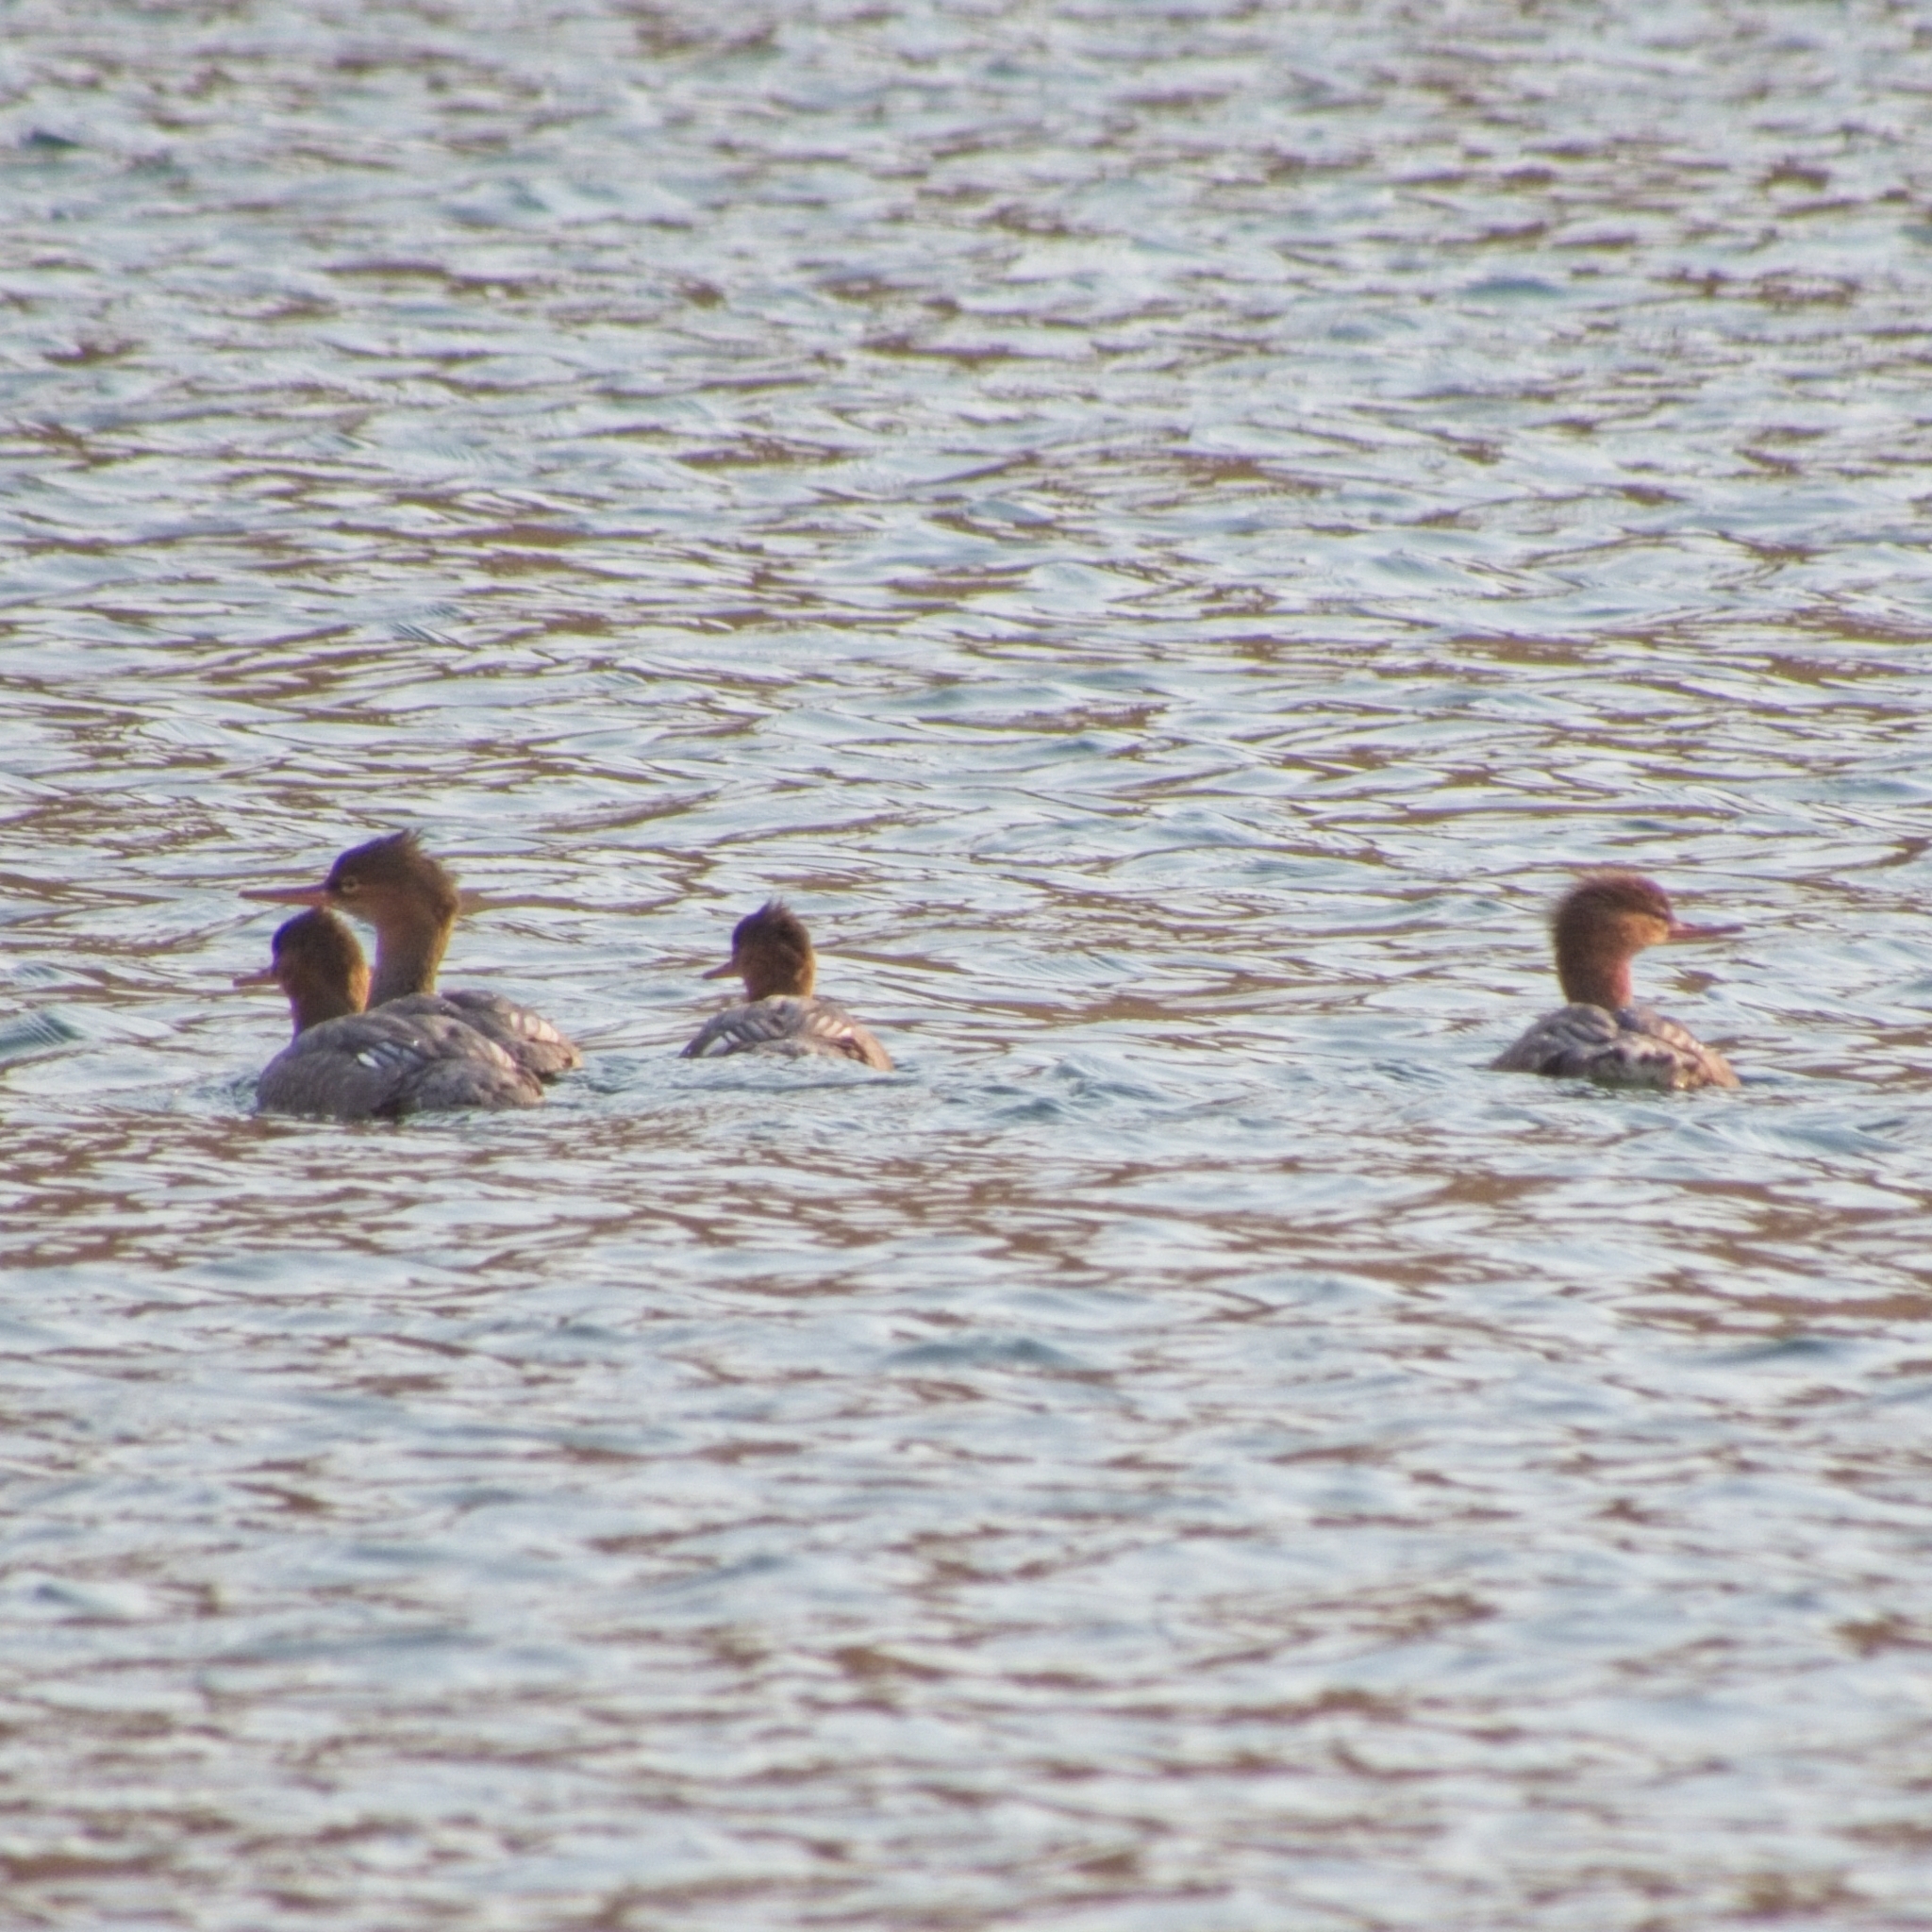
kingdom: Animalia
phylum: Chordata
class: Aves
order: Anseriformes
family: Anatidae
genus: Mergus
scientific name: Mergus merganser
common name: Common merganser
